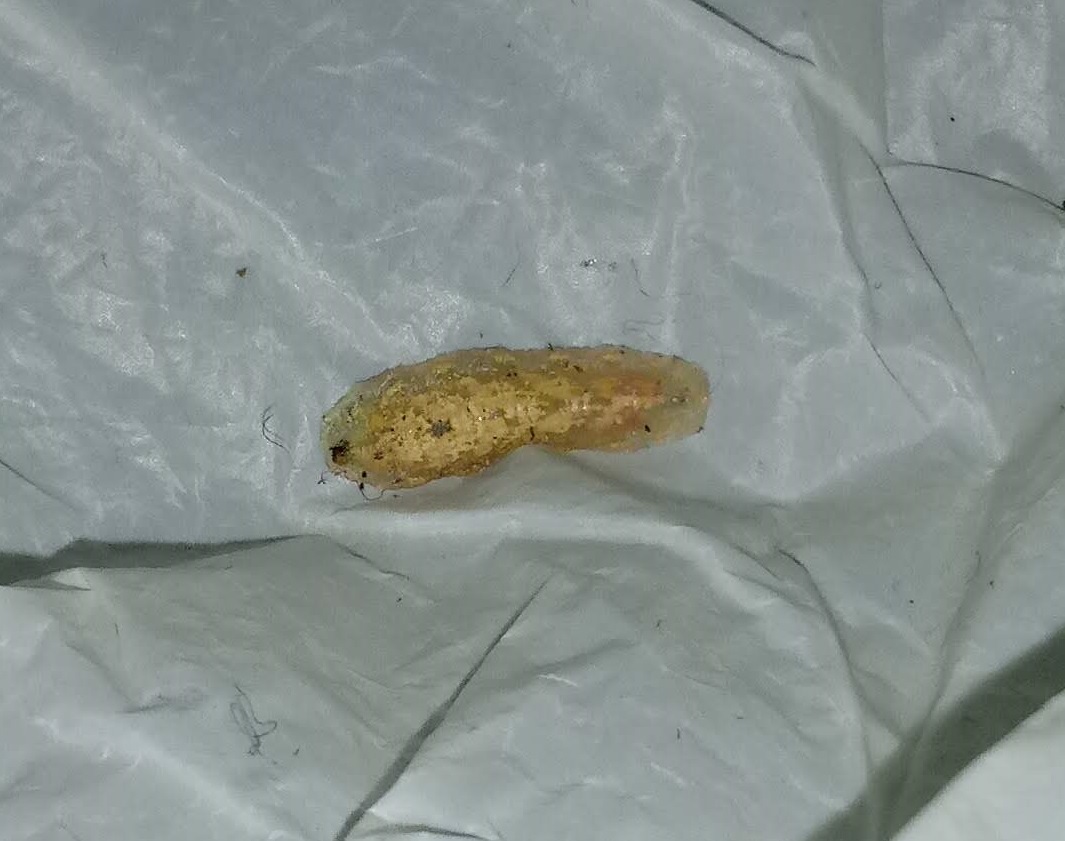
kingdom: Animalia
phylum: Arthropoda
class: Insecta
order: Diptera
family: Syrphidae
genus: Syrphus
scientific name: Syrphus knabi
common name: Eastern flower fly
